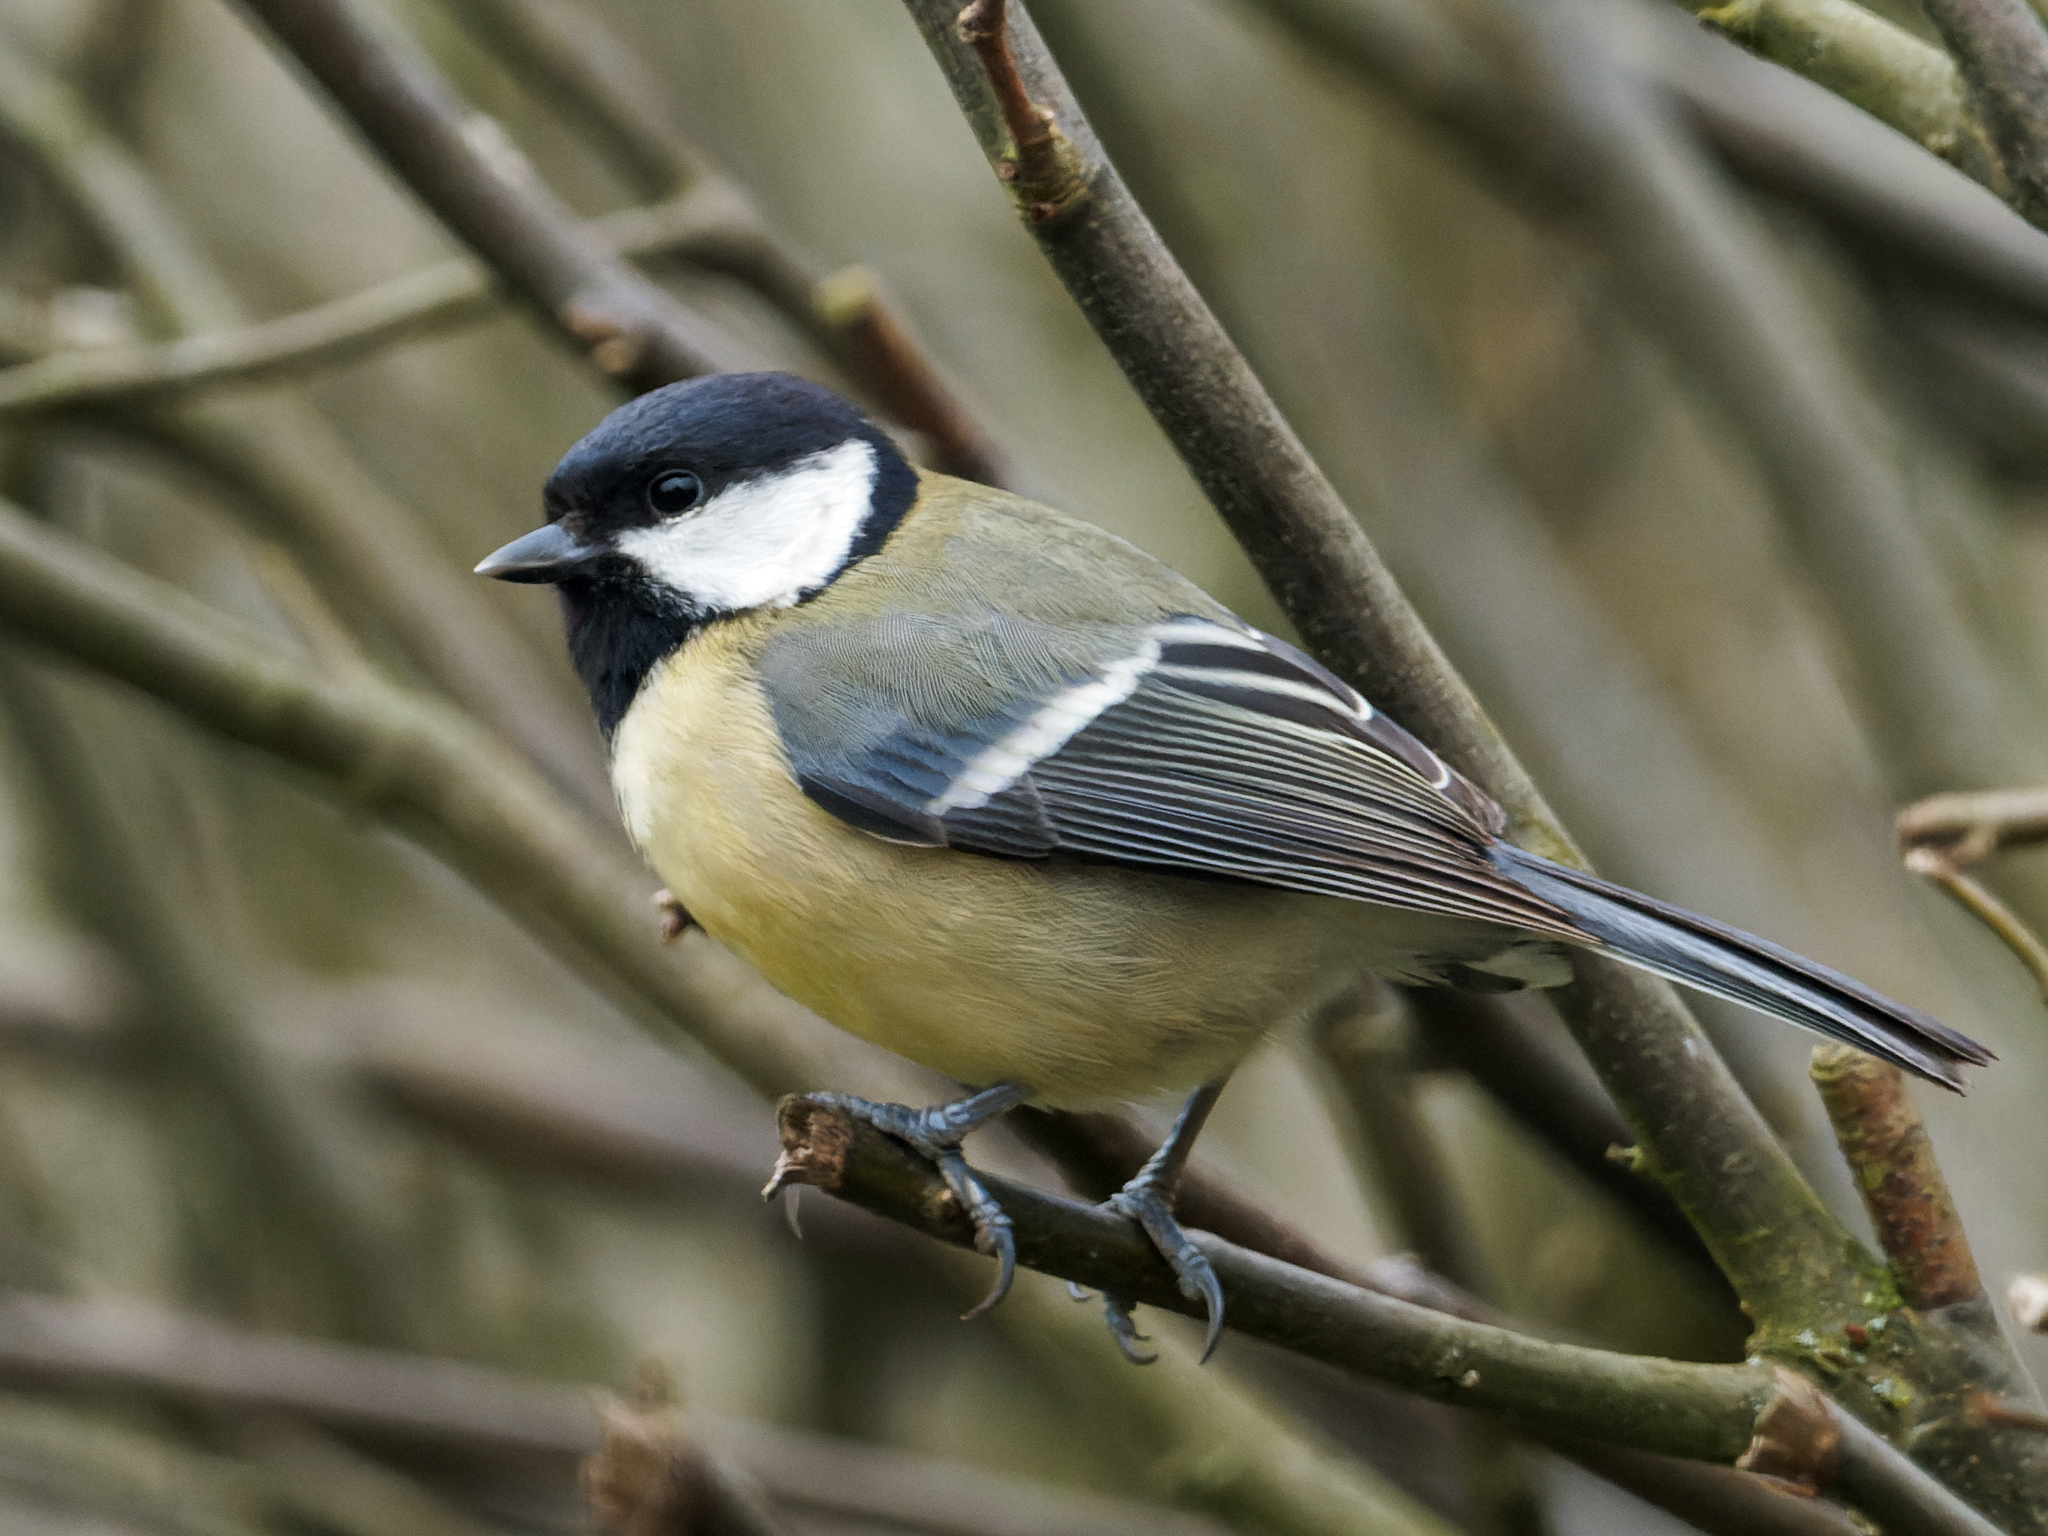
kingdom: Animalia
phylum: Chordata
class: Aves
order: Passeriformes
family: Paridae
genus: Parus
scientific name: Parus major
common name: Great tit
